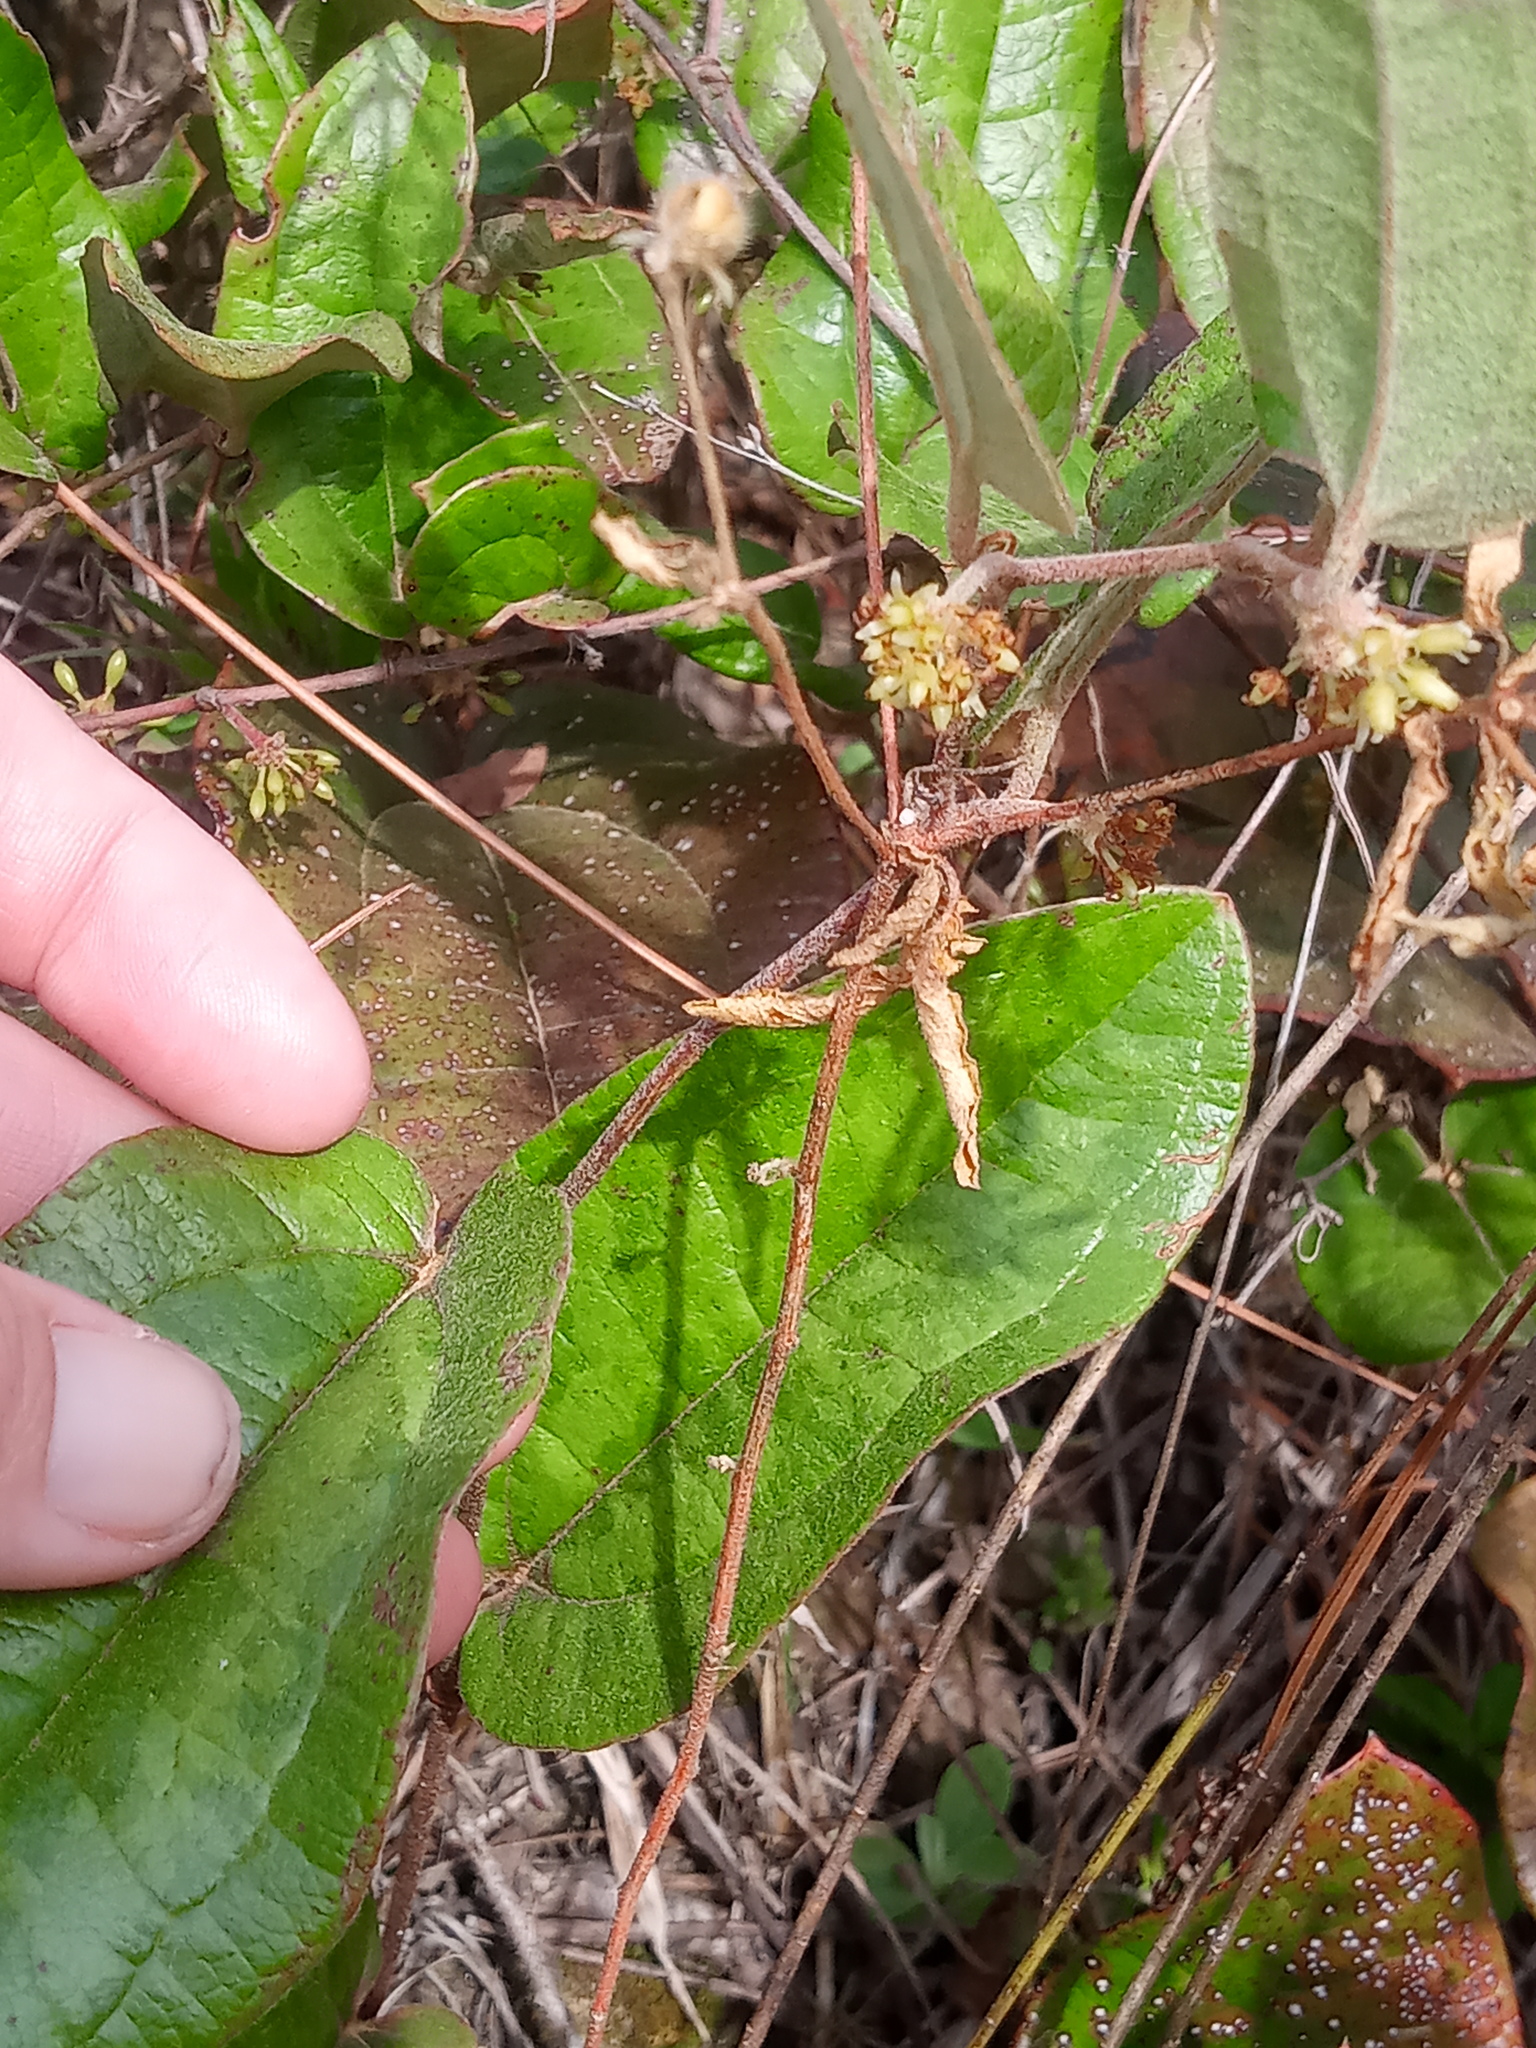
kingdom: Plantae
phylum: Tracheophyta
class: Liliopsida
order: Liliales
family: Smilacaceae
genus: Smilax
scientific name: Smilax pumila
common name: Sarsaparilla-vine
